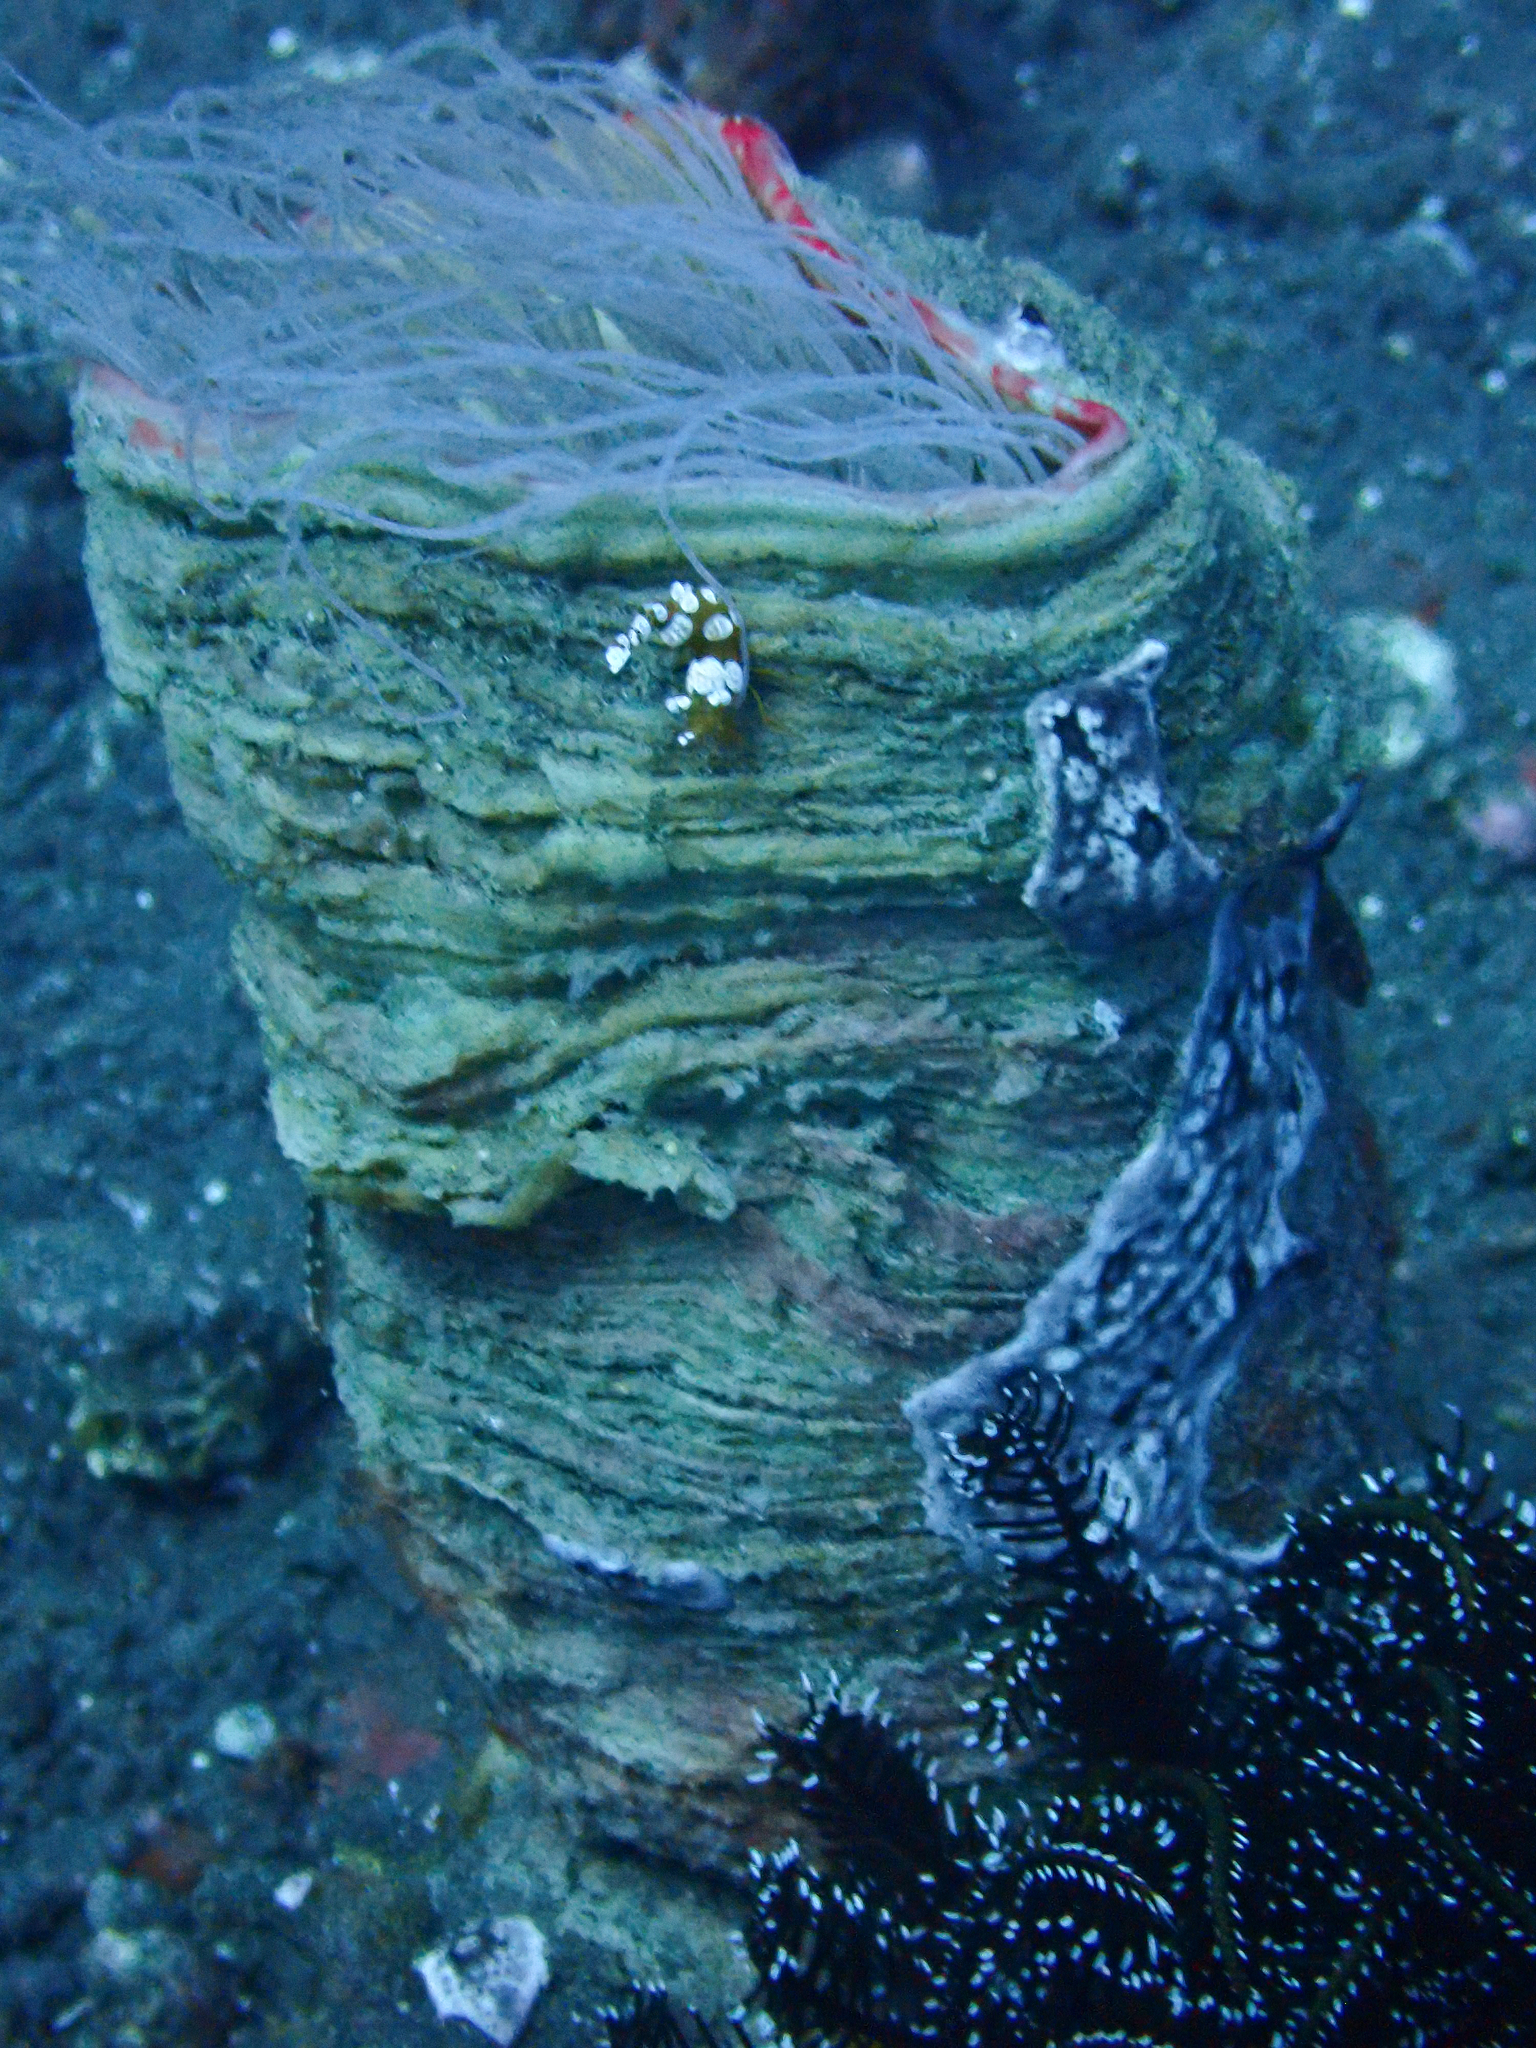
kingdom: Animalia
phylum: Arthropoda
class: Malacostraca
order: Decapoda
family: Thoridae
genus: Thor
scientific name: Thor amboinensis
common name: Squat anemone shrimp
